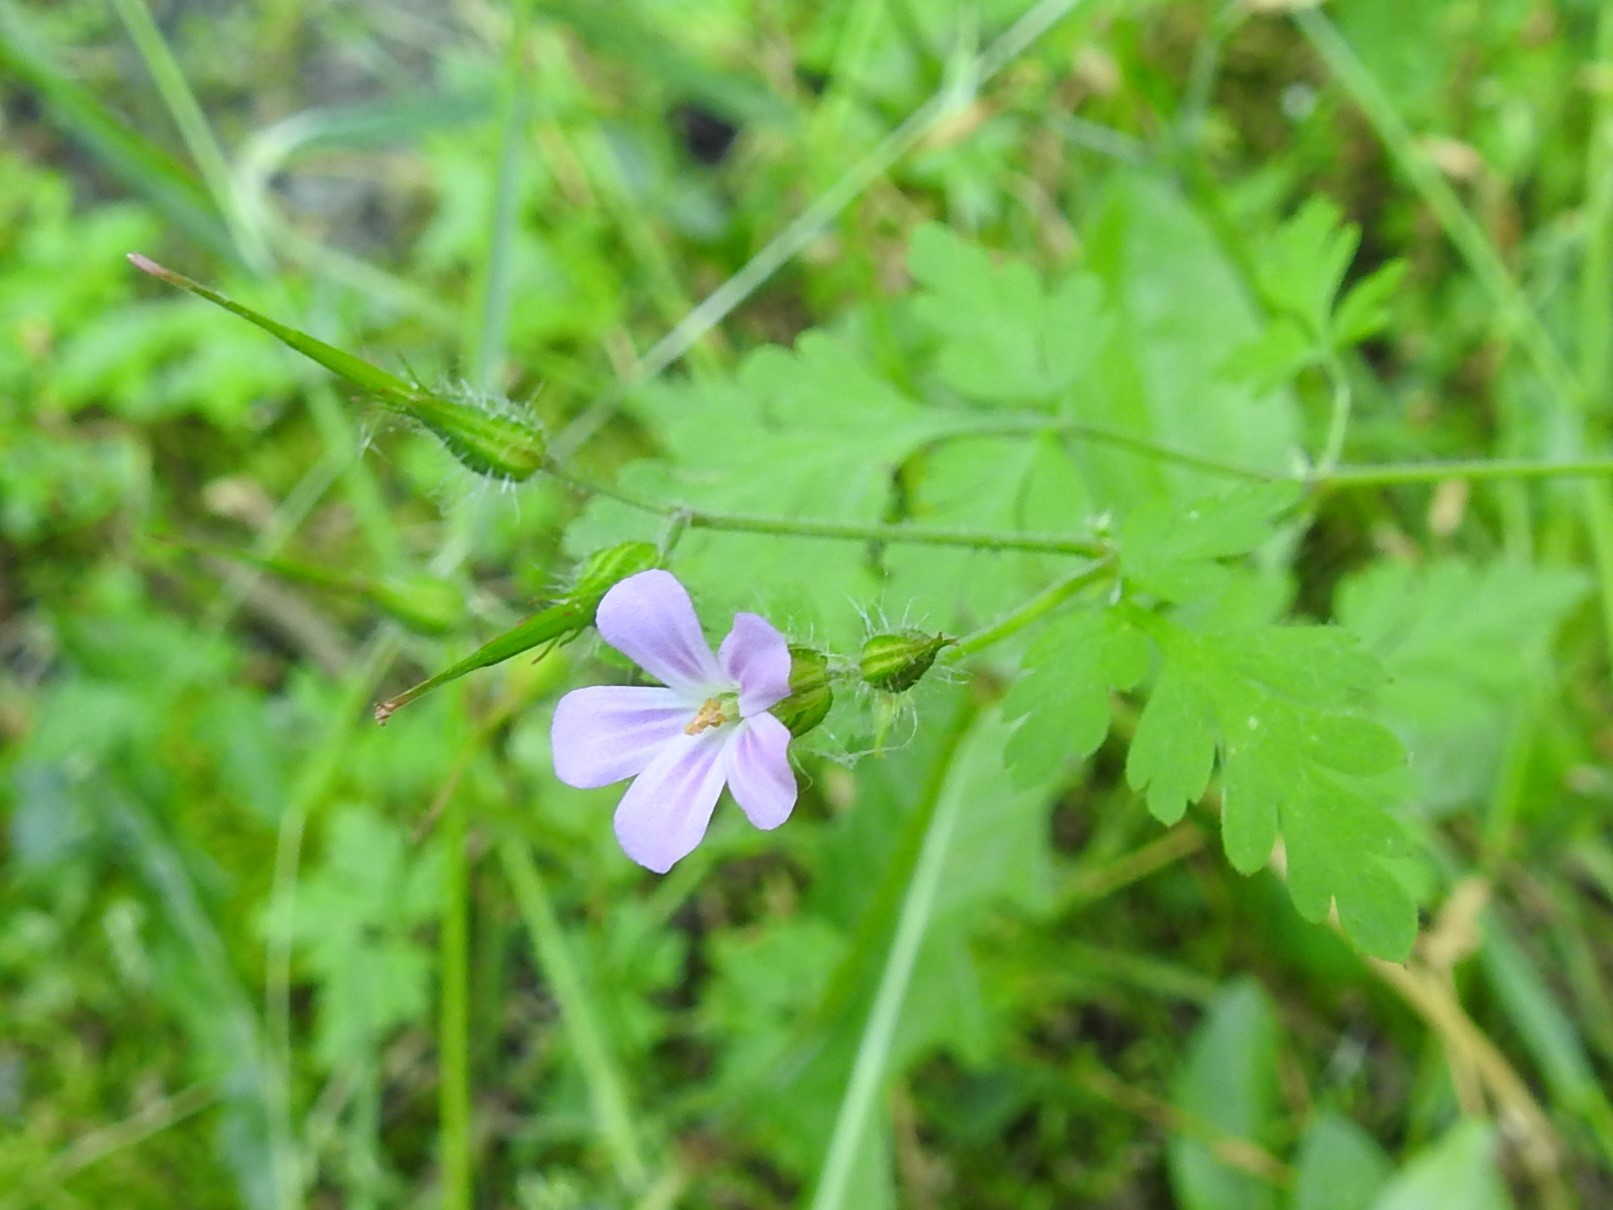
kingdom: Plantae
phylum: Tracheophyta
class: Magnoliopsida
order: Geraniales
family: Geraniaceae
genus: Geranium
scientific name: Geranium robertianum
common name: Herb-robert
